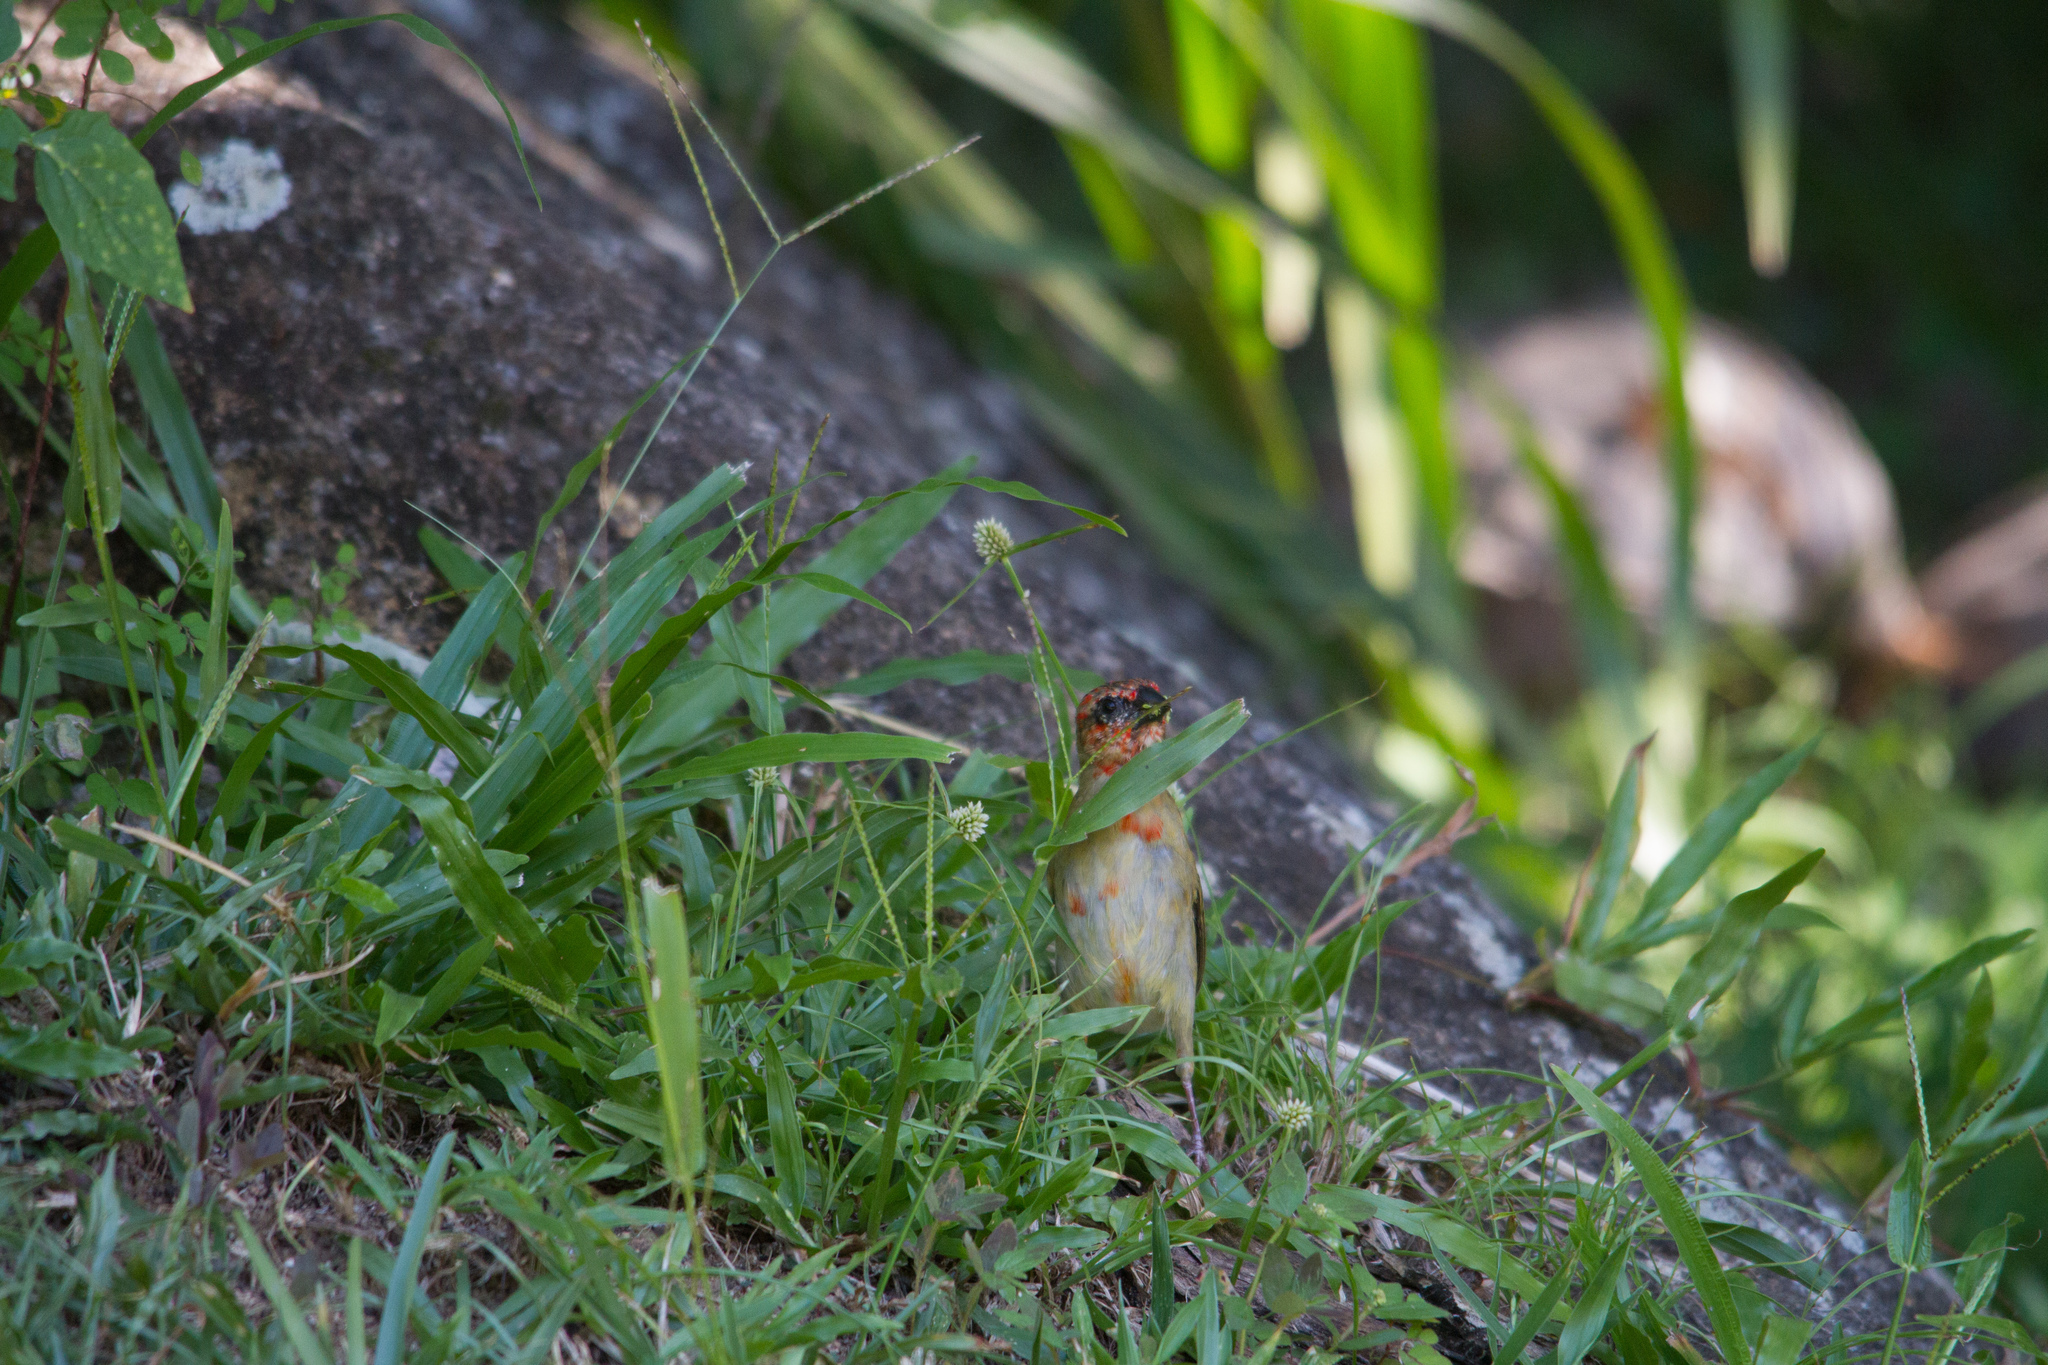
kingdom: Animalia
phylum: Chordata
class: Aves
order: Passeriformes
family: Ploceidae
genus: Foudia
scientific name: Foudia madagascariensis
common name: Red fody
